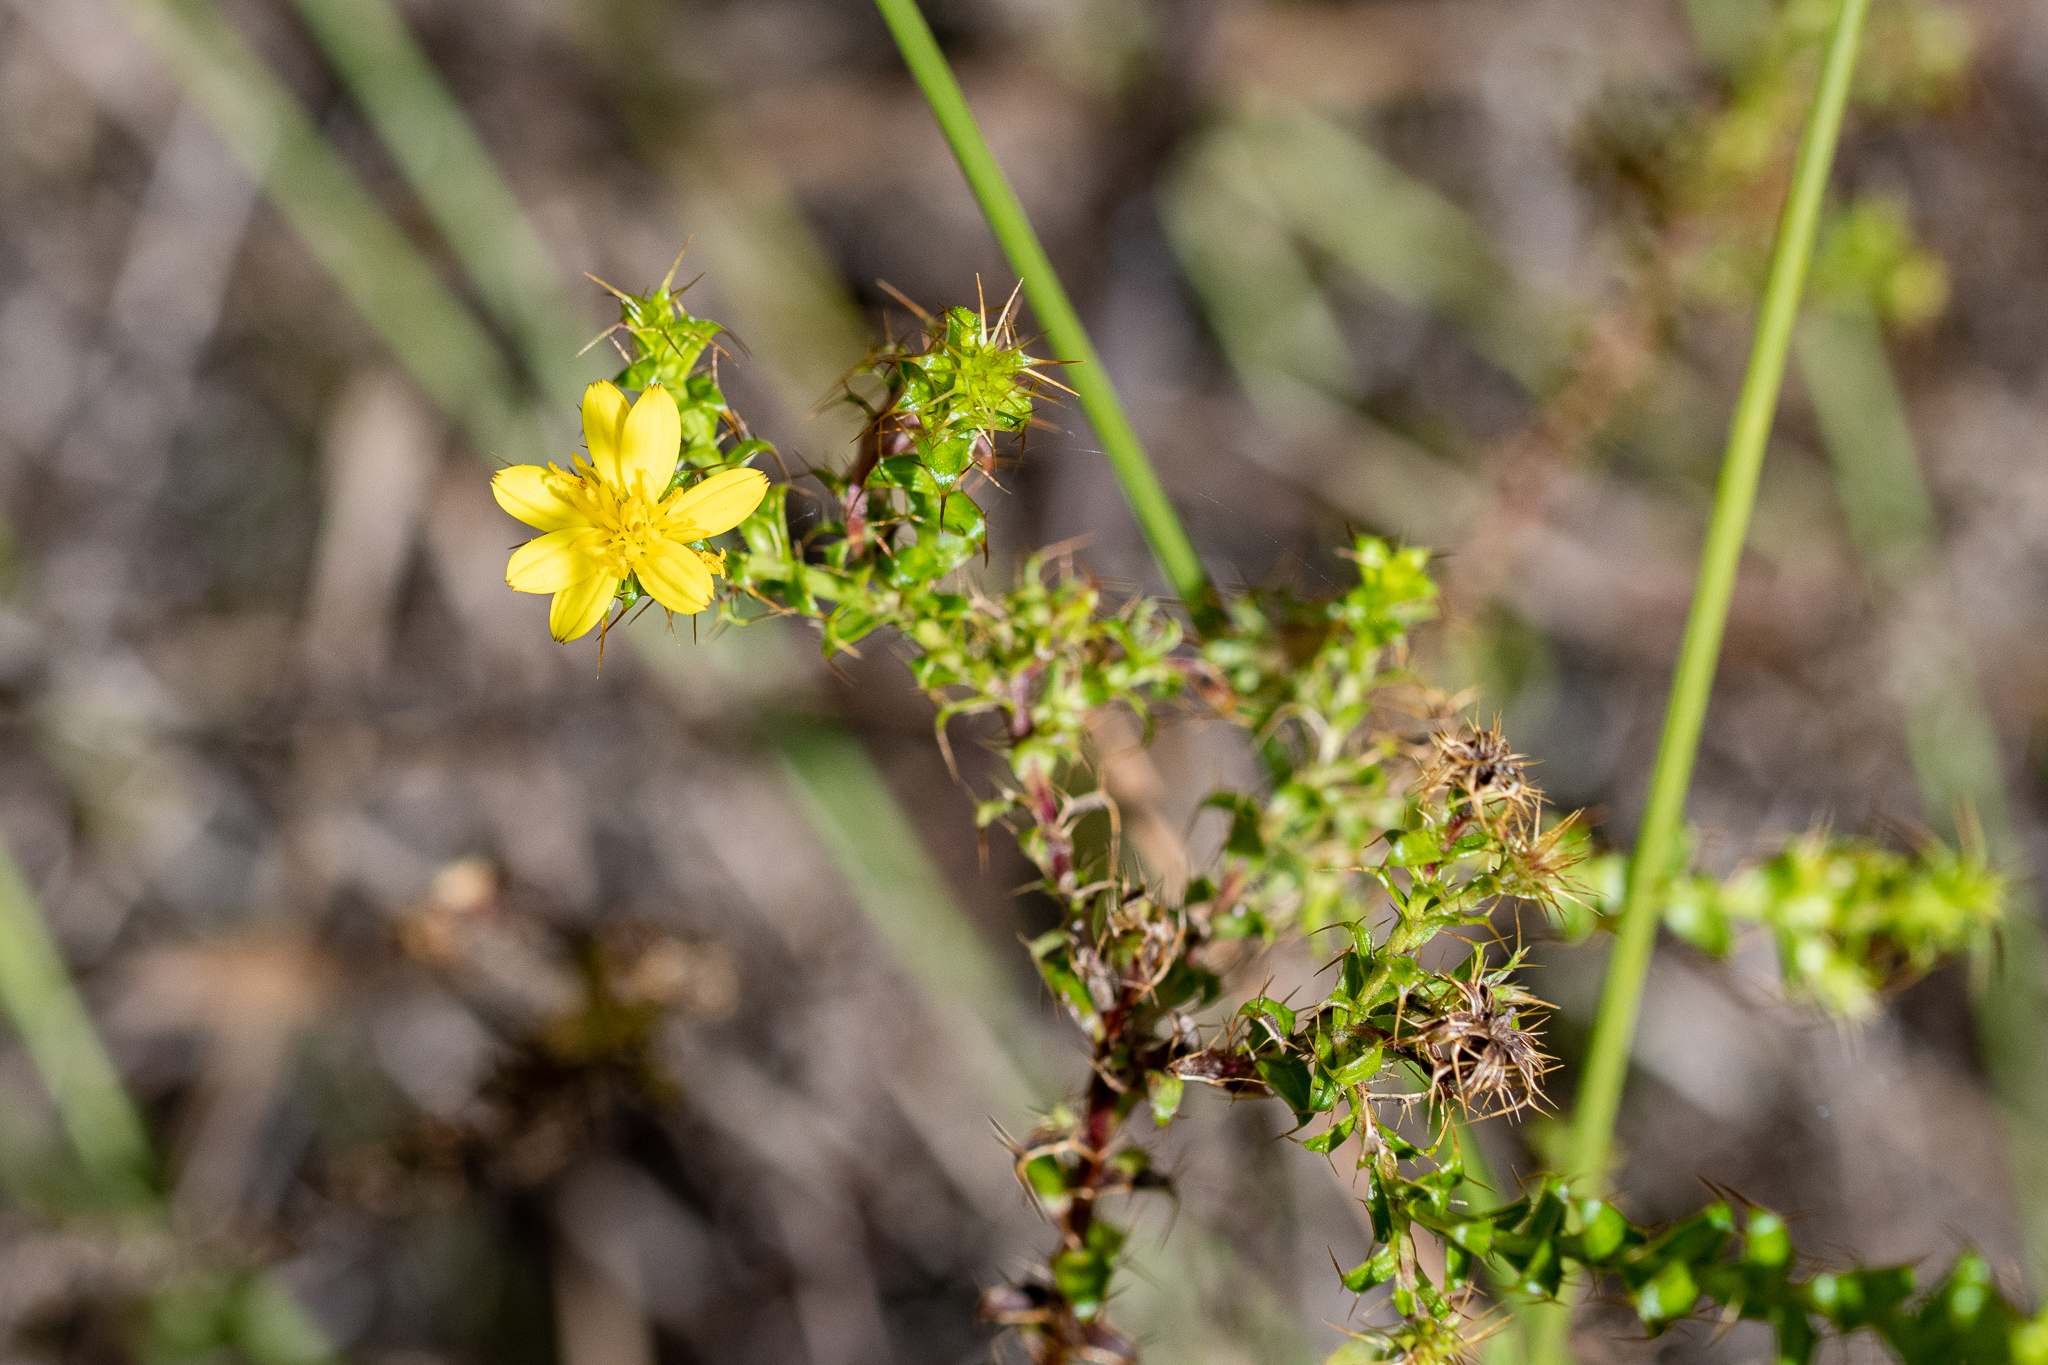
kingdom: Plantae
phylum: Tracheophyta
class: Magnoliopsida
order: Asterales
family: Asteraceae
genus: Cullumia
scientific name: Cullumia setosa
